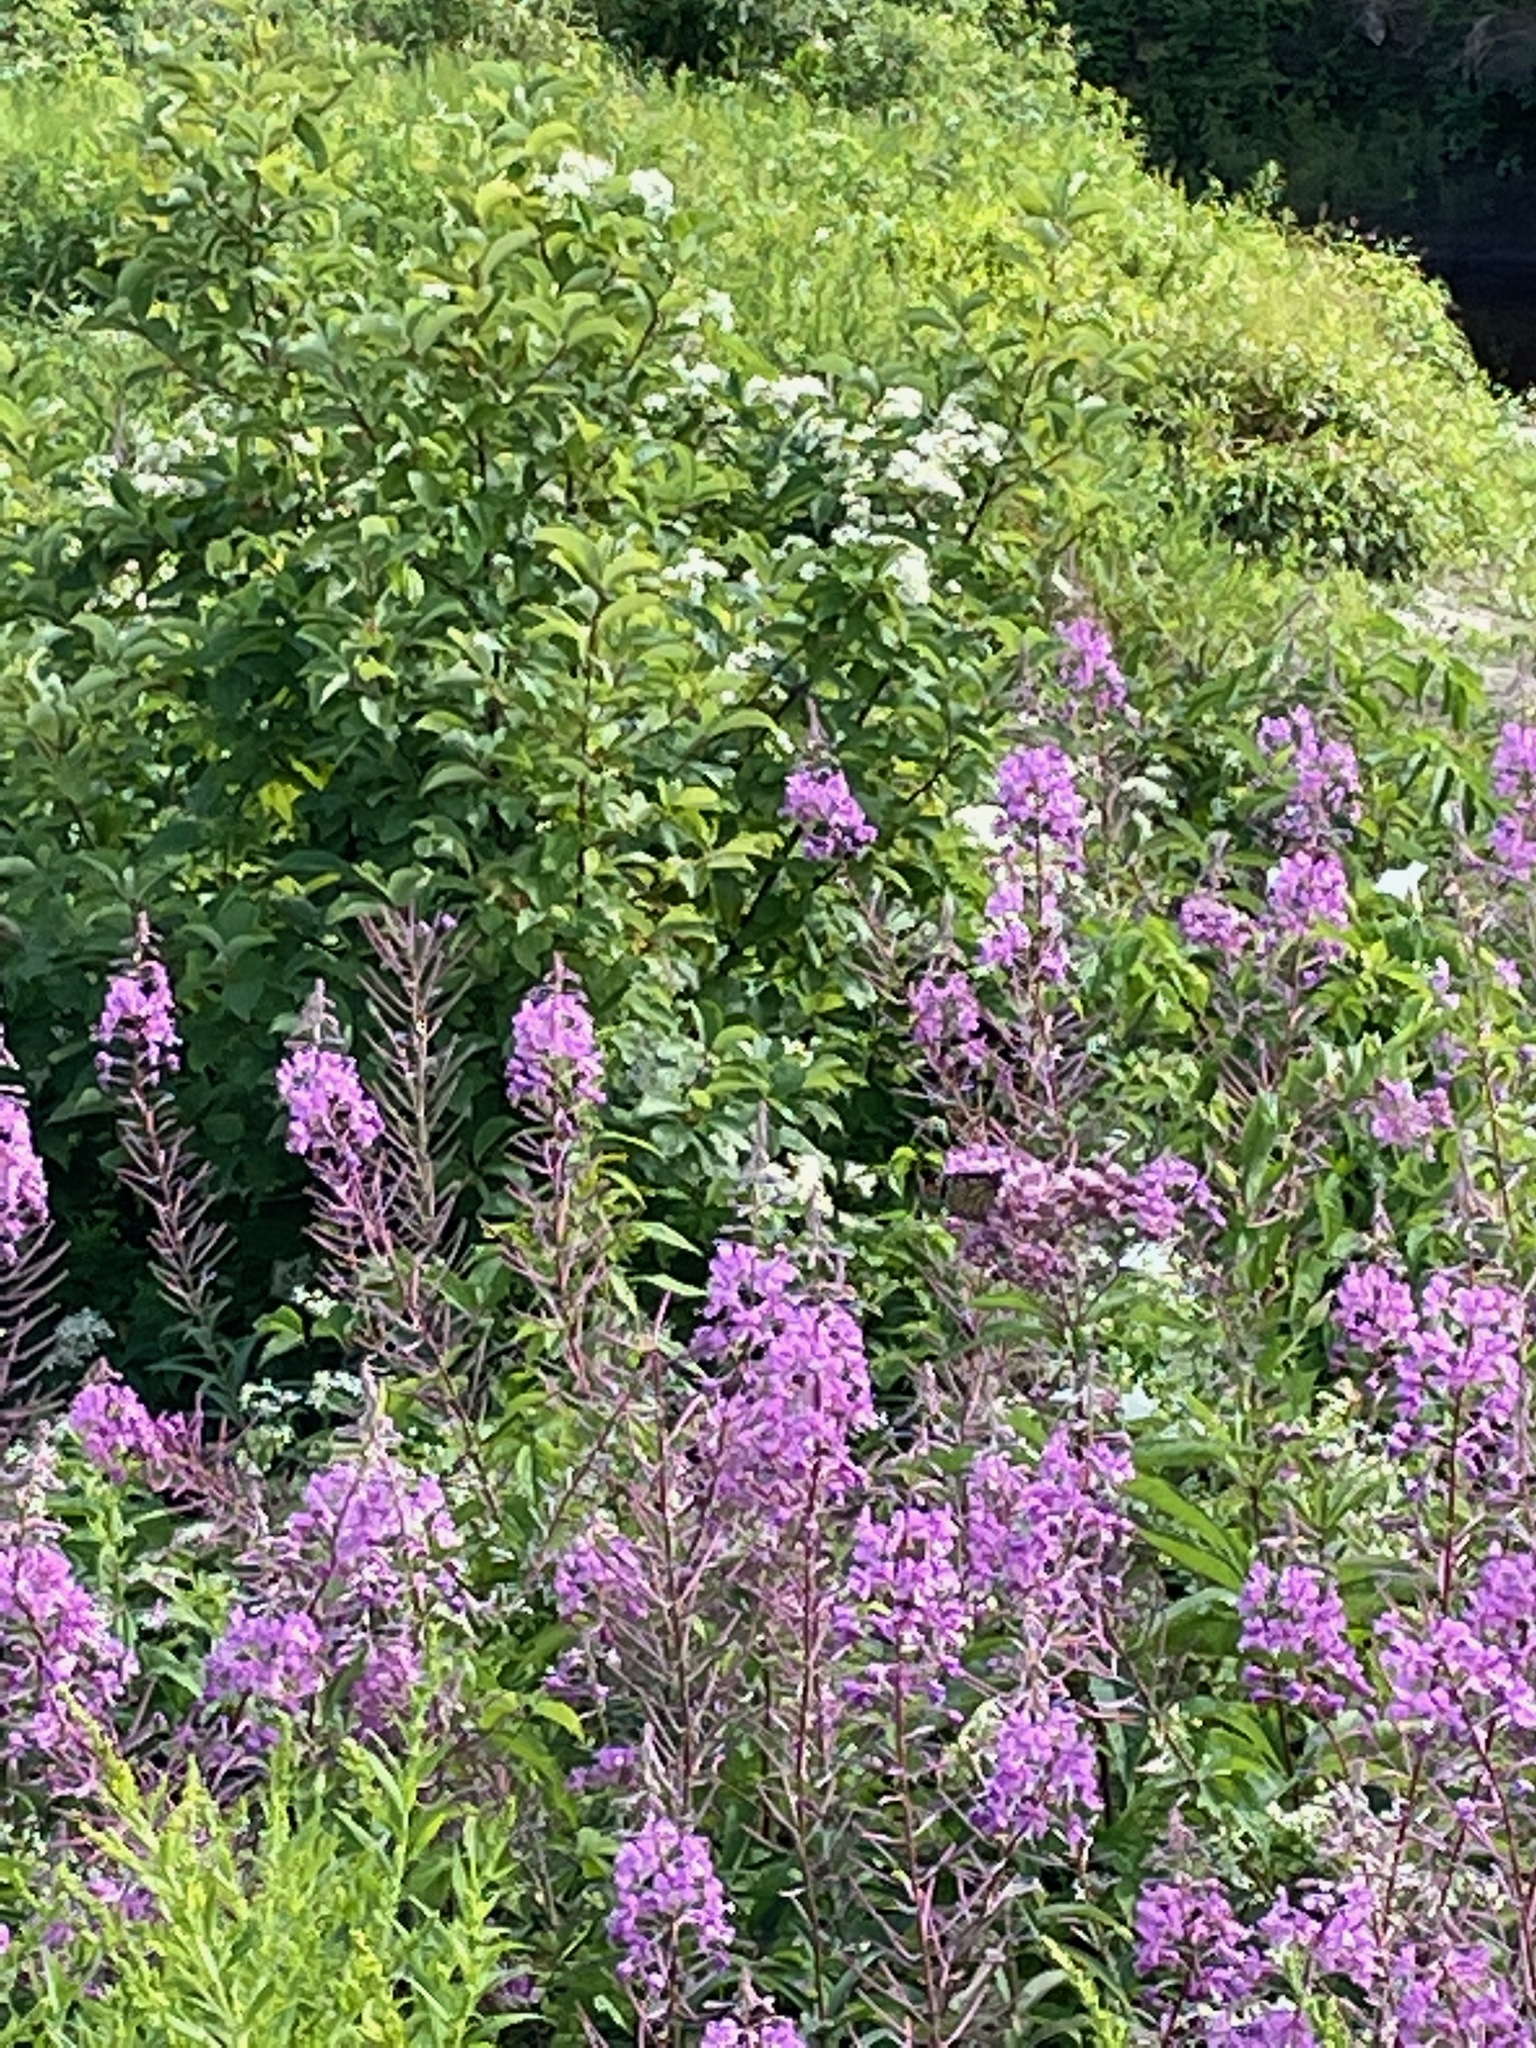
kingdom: Plantae
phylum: Tracheophyta
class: Magnoliopsida
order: Myrtales
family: Onagraceae
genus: Chamaenerion
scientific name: Chamaenerion angustifolium
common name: Fireweed
